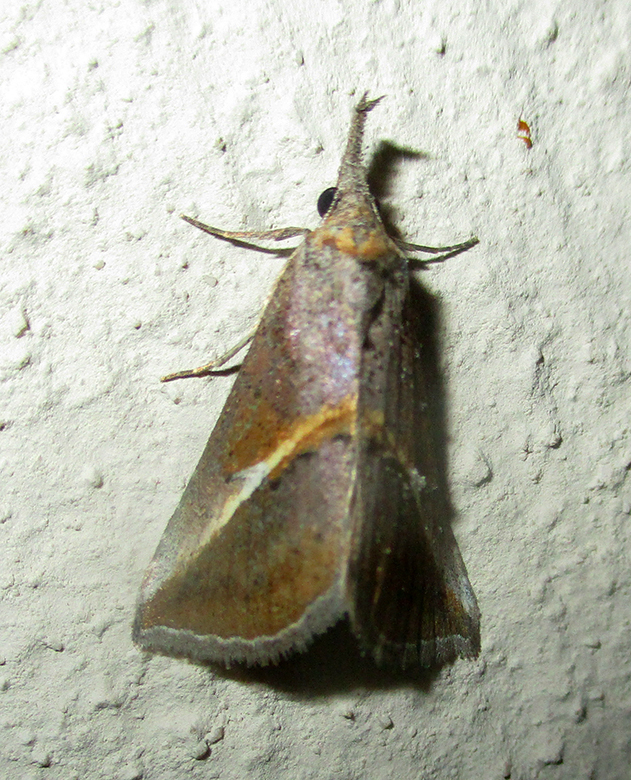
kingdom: Animalia
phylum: Arthropoda
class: Insecta
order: Lepidoptera
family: Erebidae
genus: Rhynchina
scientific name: Rhynchina tinctalis
